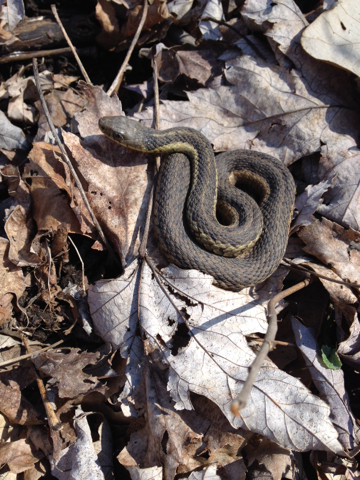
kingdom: Animalia
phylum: Chordata
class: Squamata
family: Colubridae
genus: Thamnophis
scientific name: Thamnophis sirtalis
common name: Common garter snake
